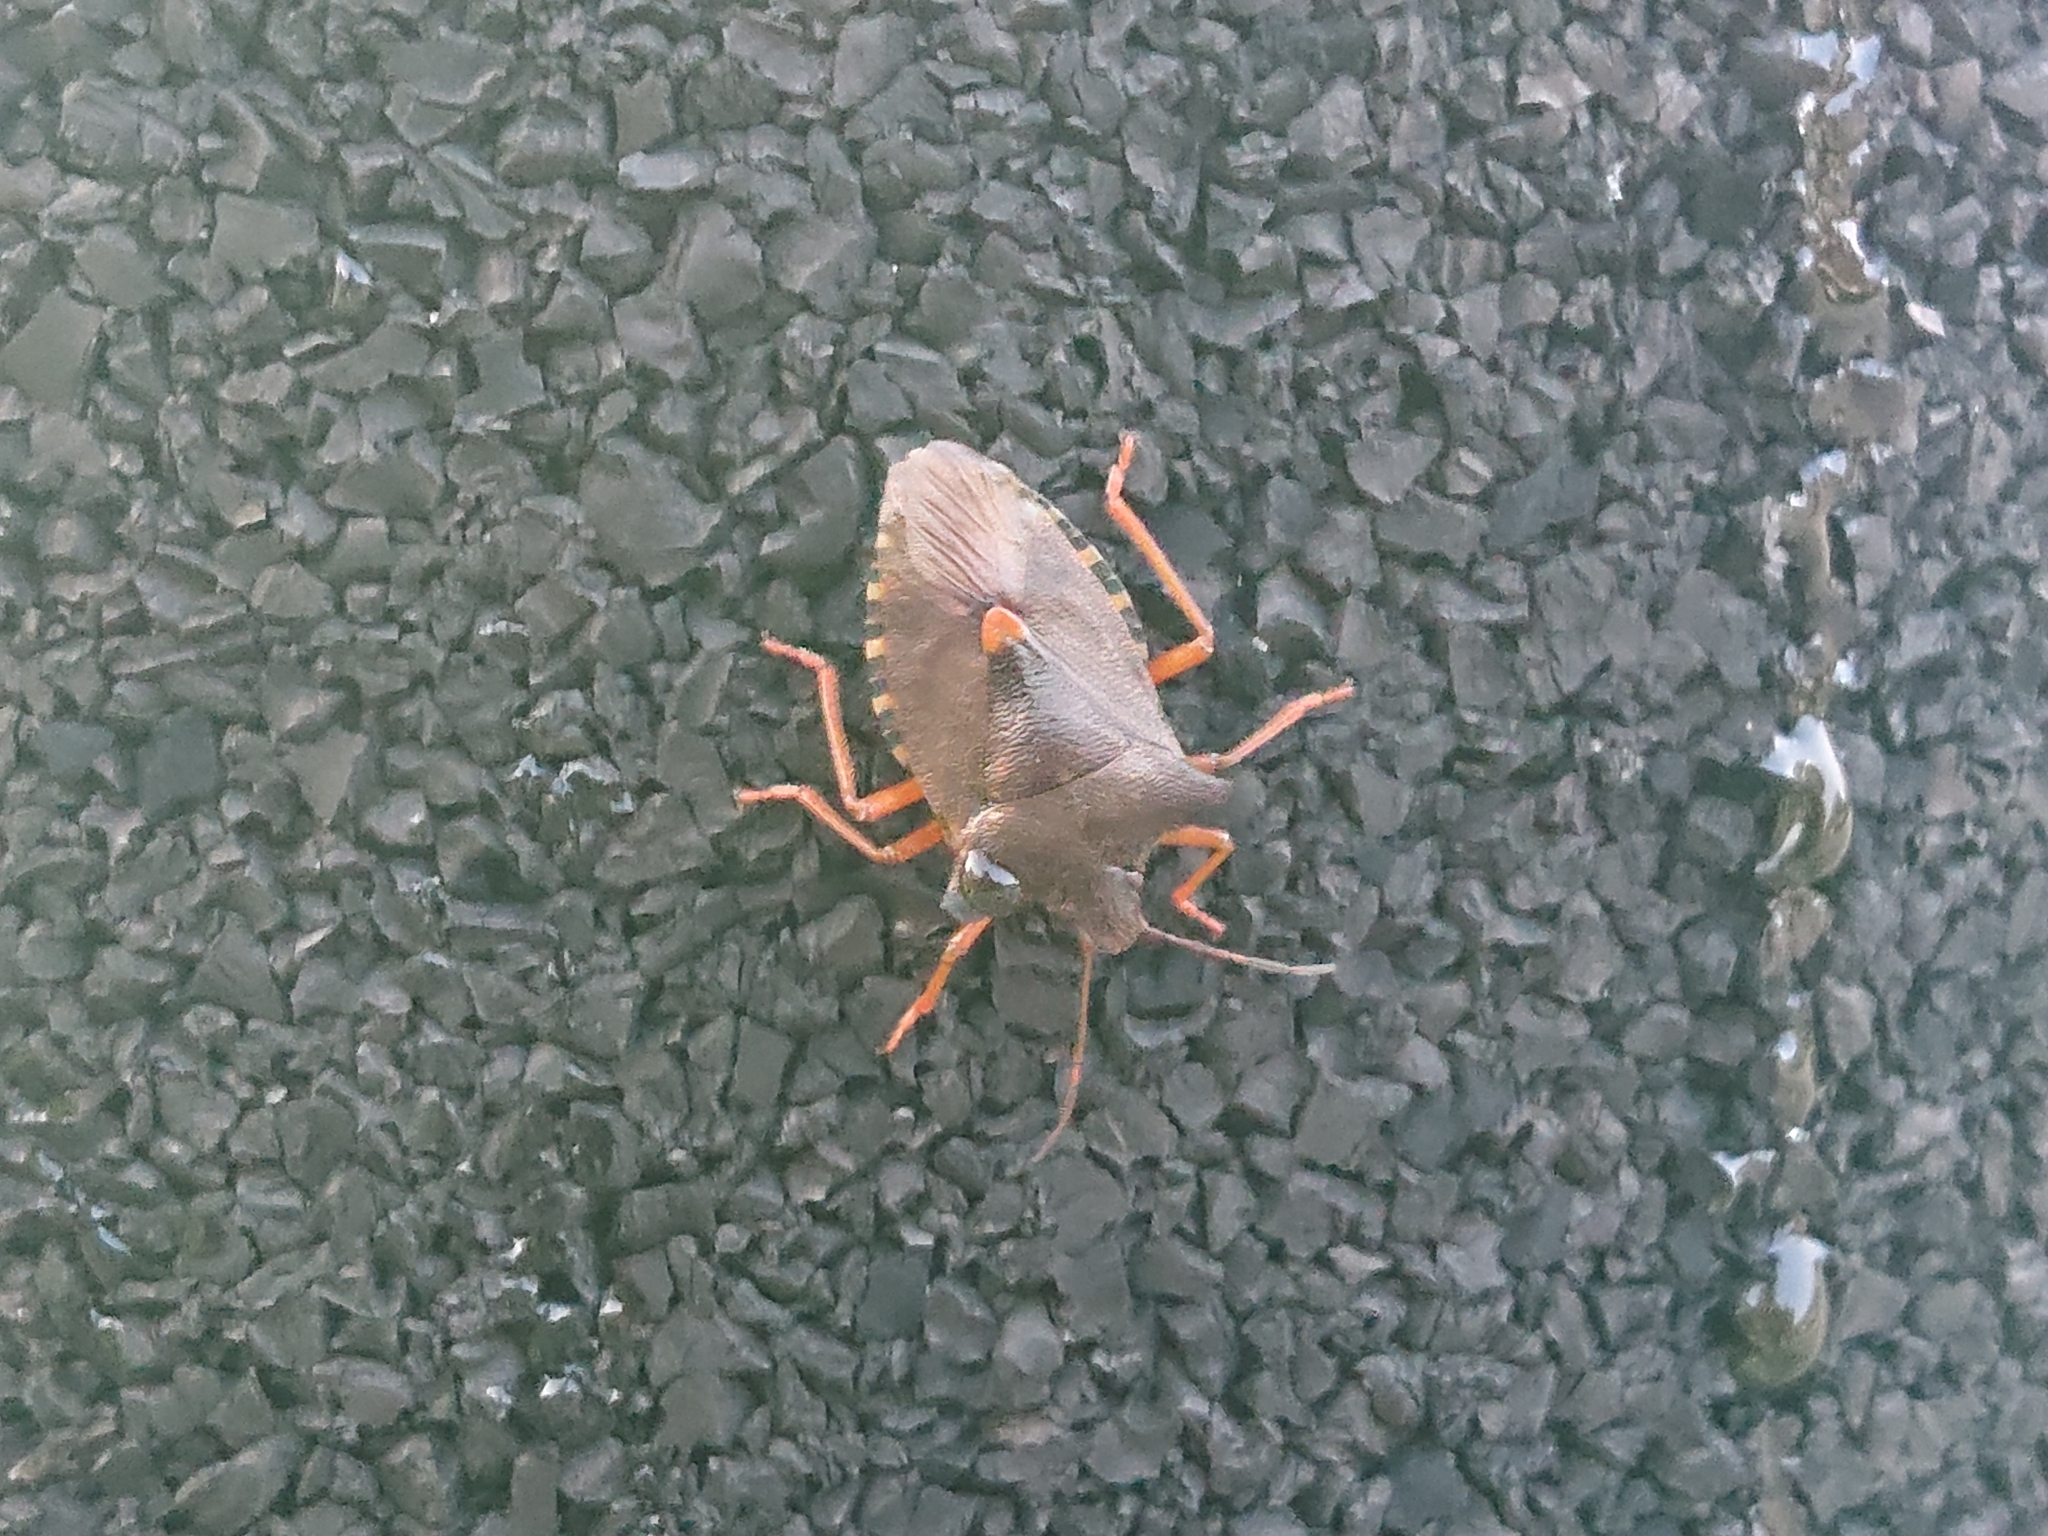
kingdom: Animalia
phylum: Arthropoda
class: Insecta
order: Hemiptera
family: Pentatomidae
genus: Pentatoma
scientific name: Pentatoma rufipes
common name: Forest bug
